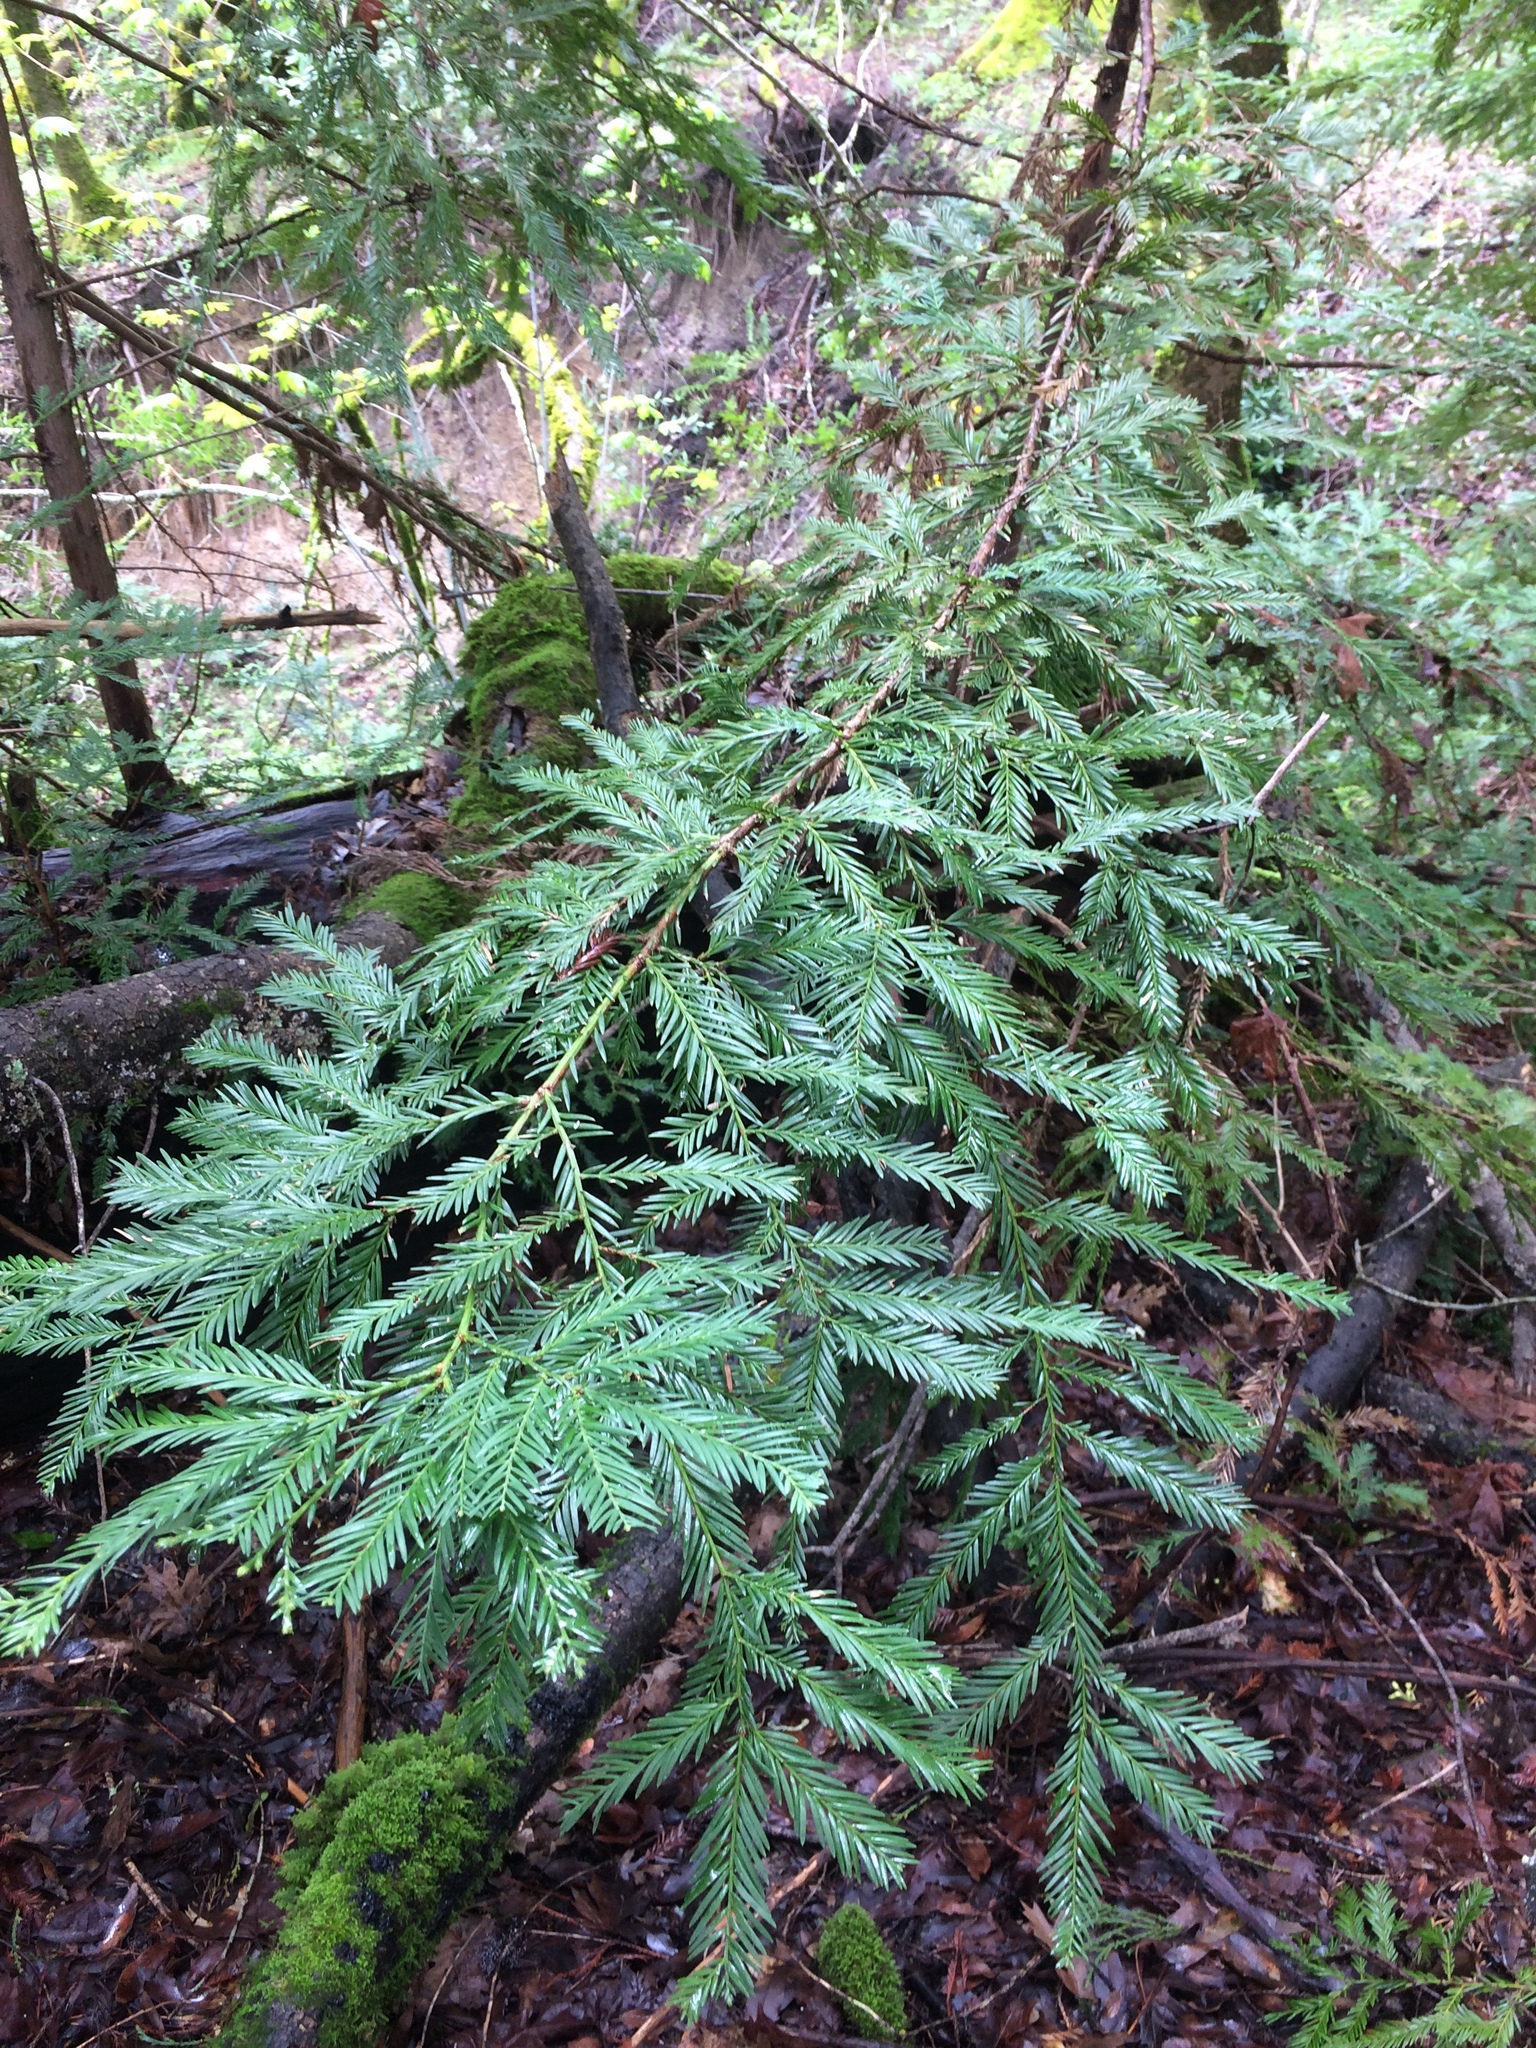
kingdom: Plantae
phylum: Tracheophyta
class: Pinopsida
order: Pinales
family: Cupressaceae
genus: Sequoia
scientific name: Sequoia sempervirens
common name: Coast redwood
